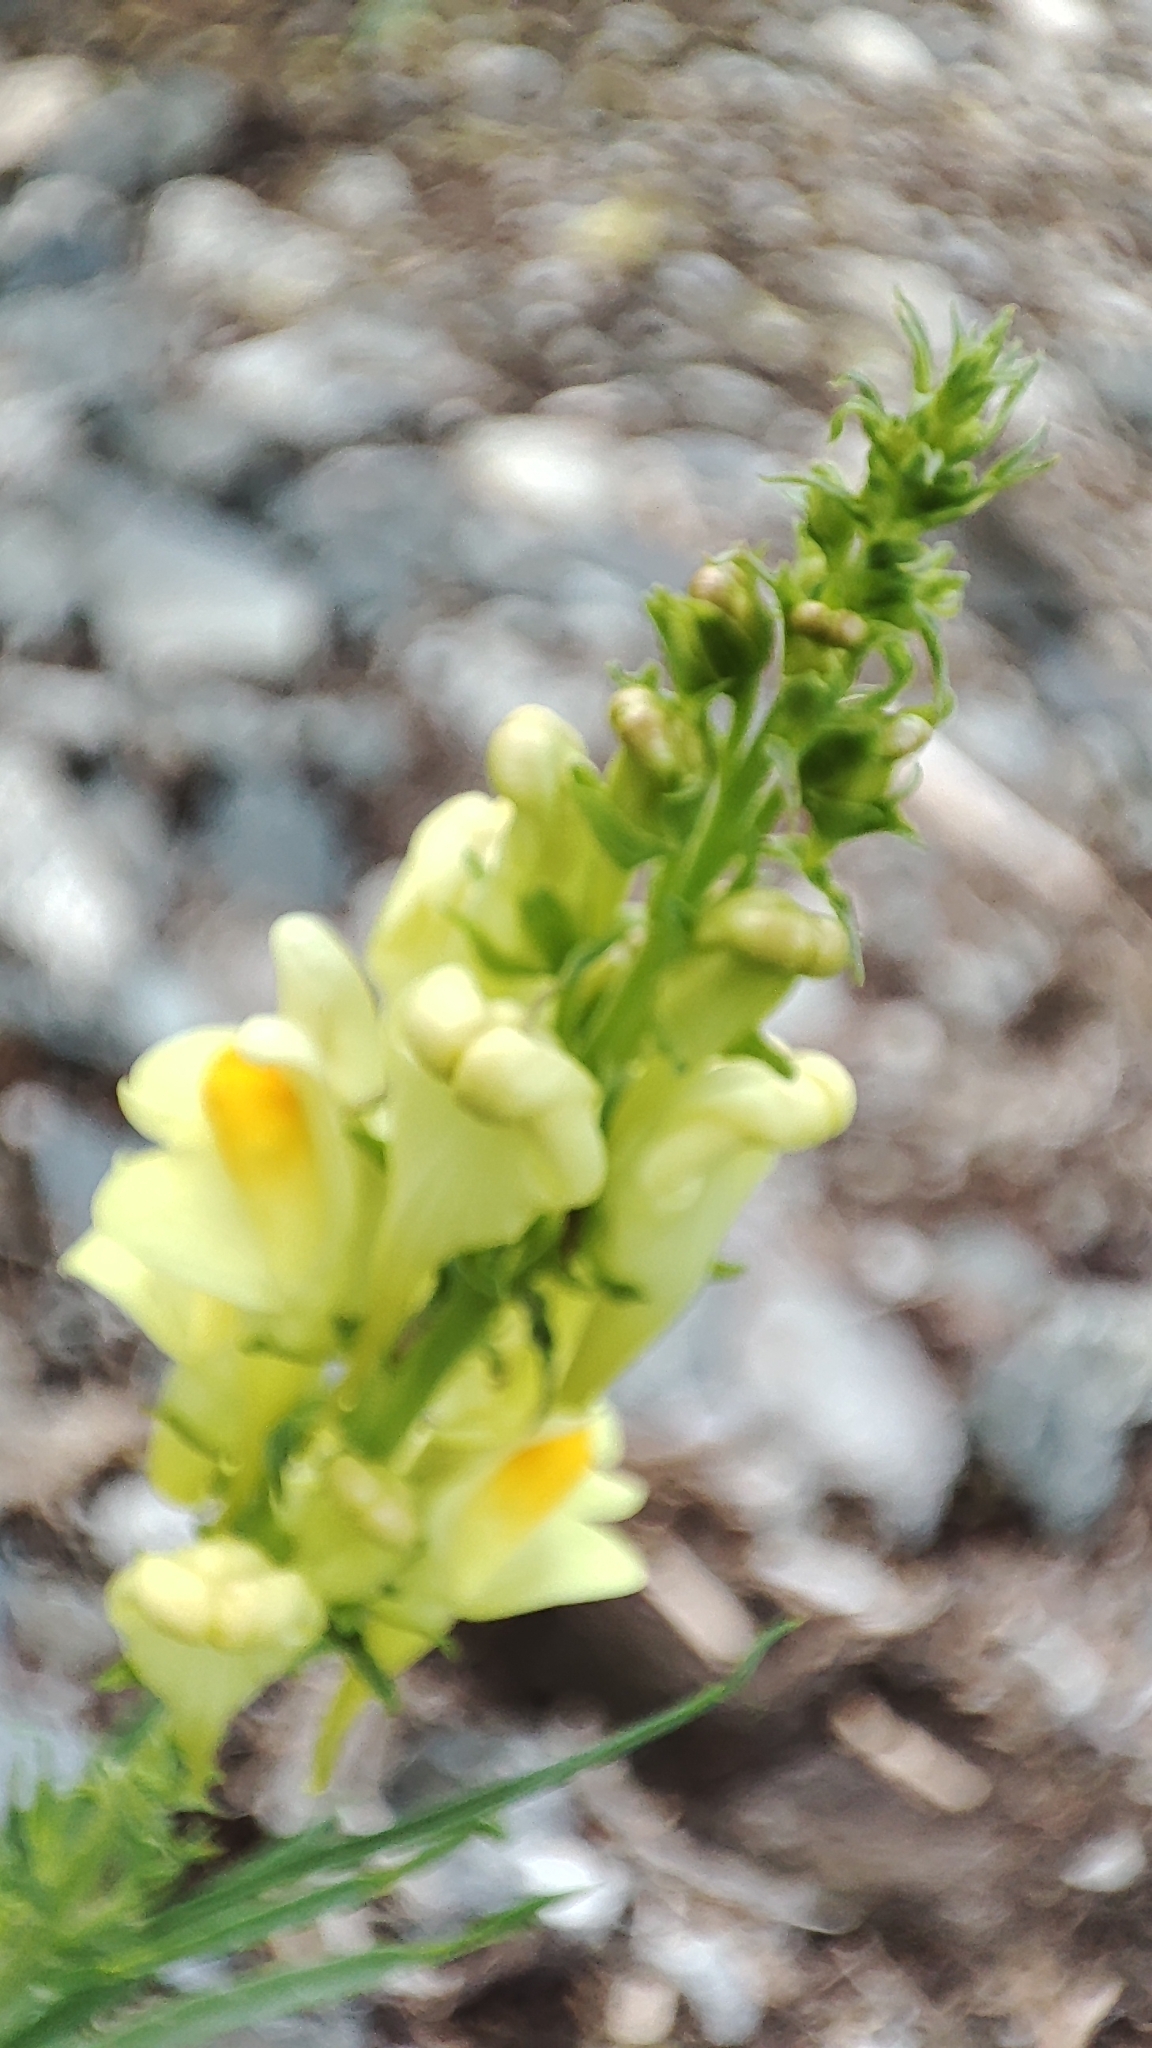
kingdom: Plantae
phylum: Tracheophyta
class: Magnoliopsida
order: Lamiales
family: Plantaginaceae
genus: Linaria
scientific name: Linaria vulgaris
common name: Butter and eggs
